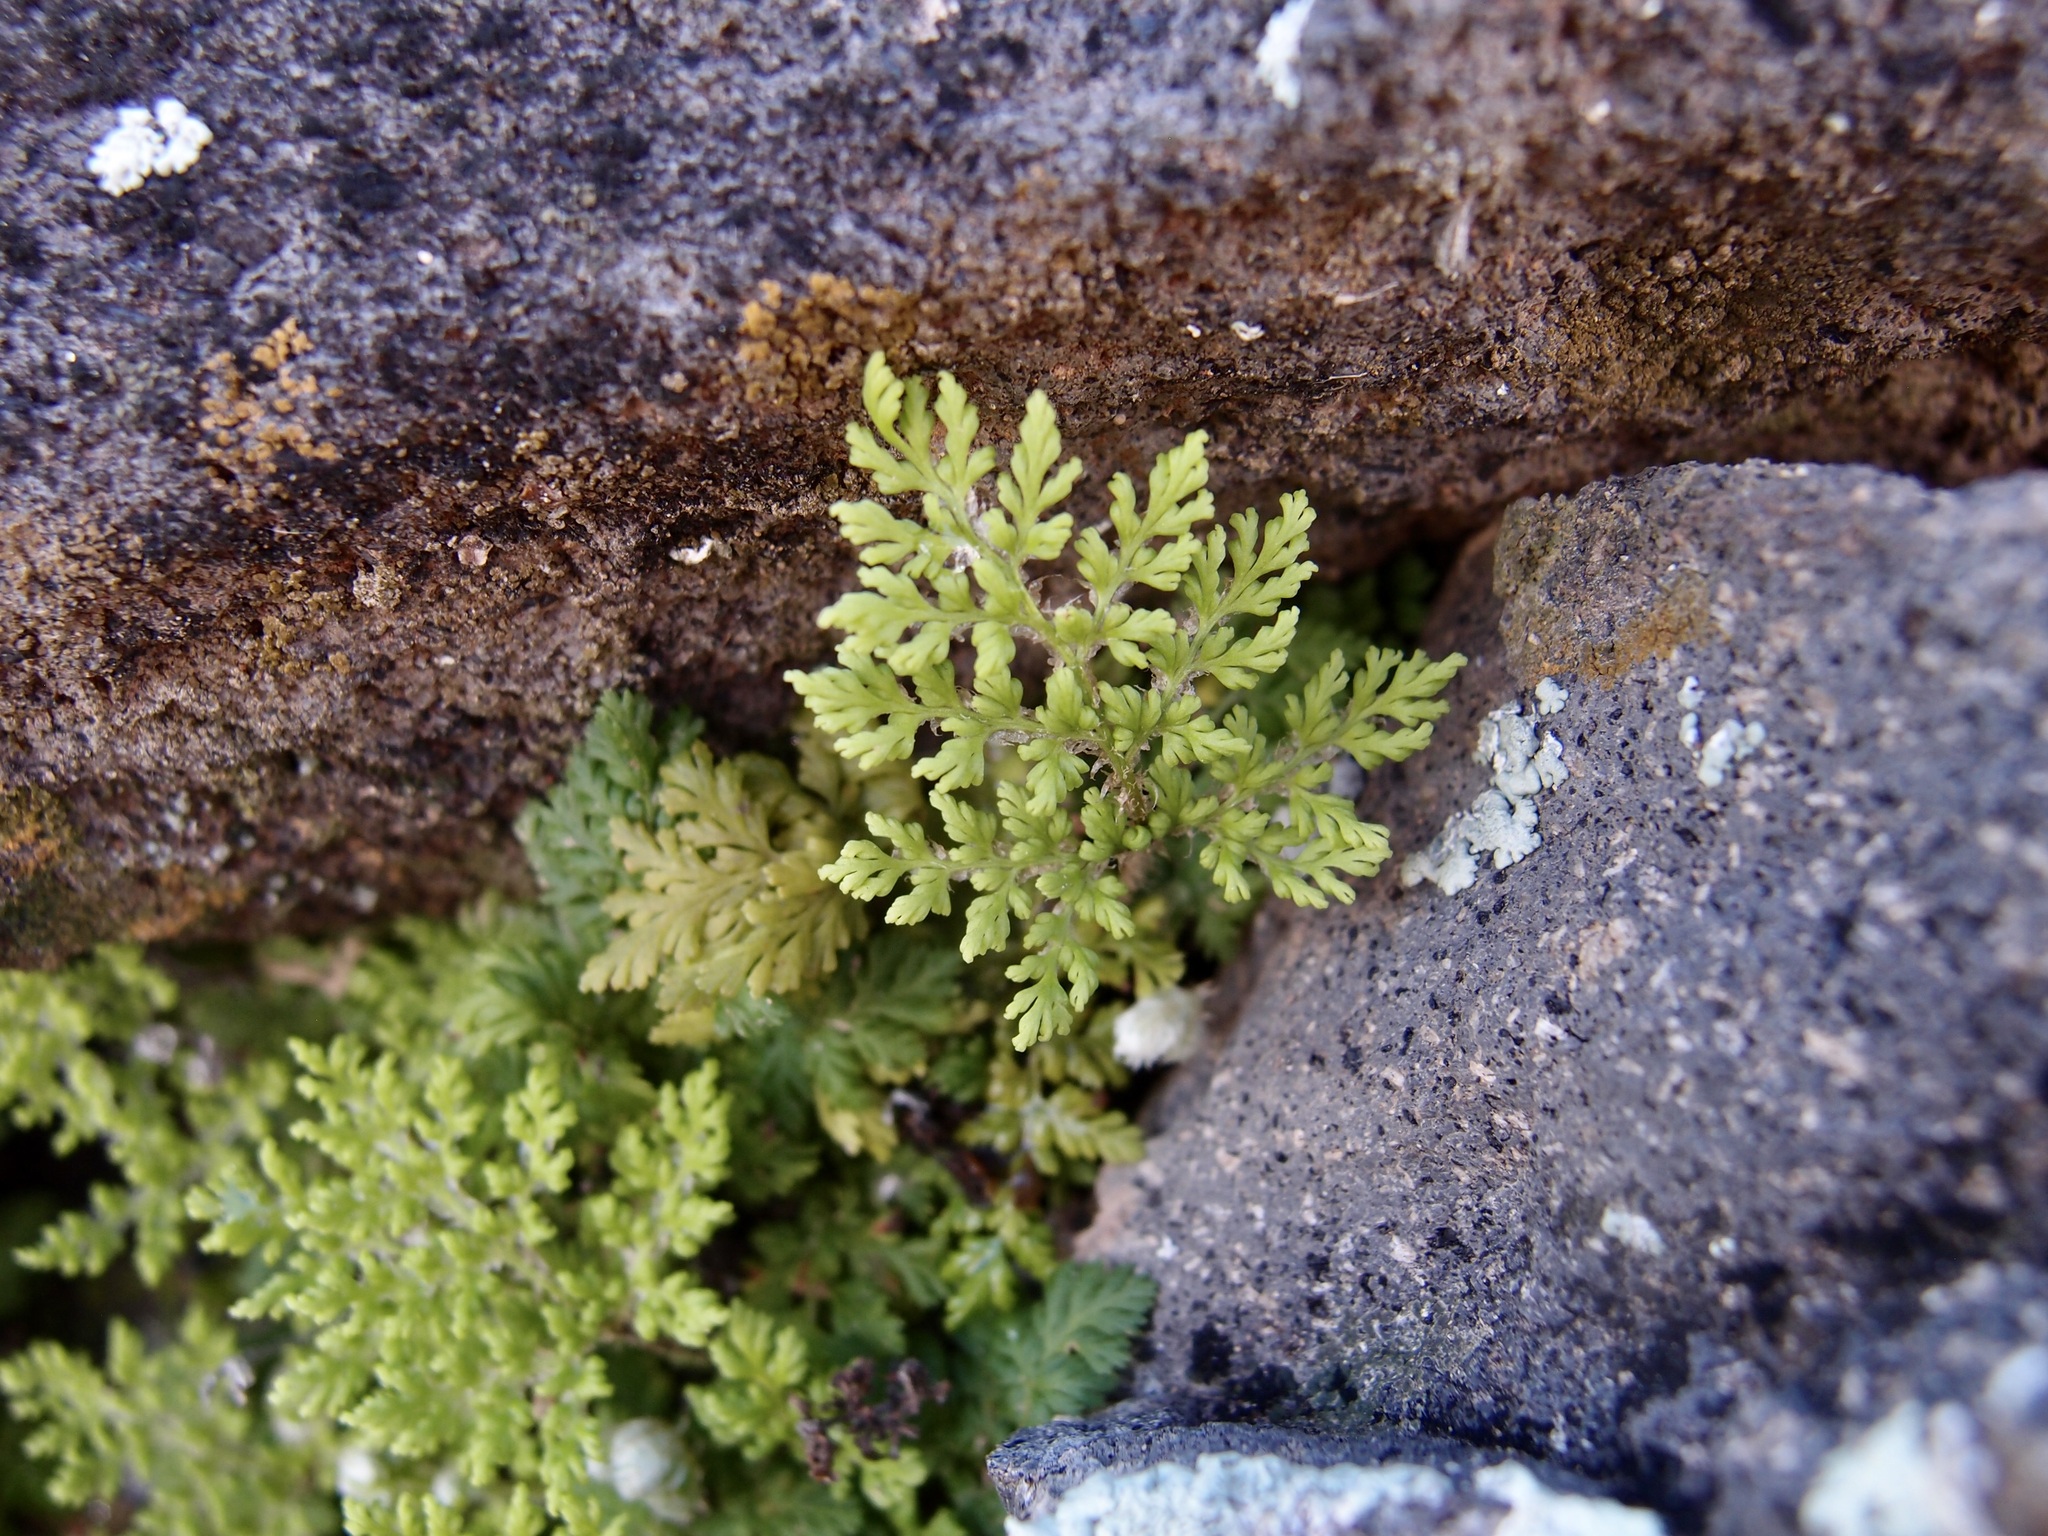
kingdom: Plantae
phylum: Tracheophyta
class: Polypodiopsida
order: Polypodiales
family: Pteridaceae
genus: Myriopteris
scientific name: Myriopteris pringlei
